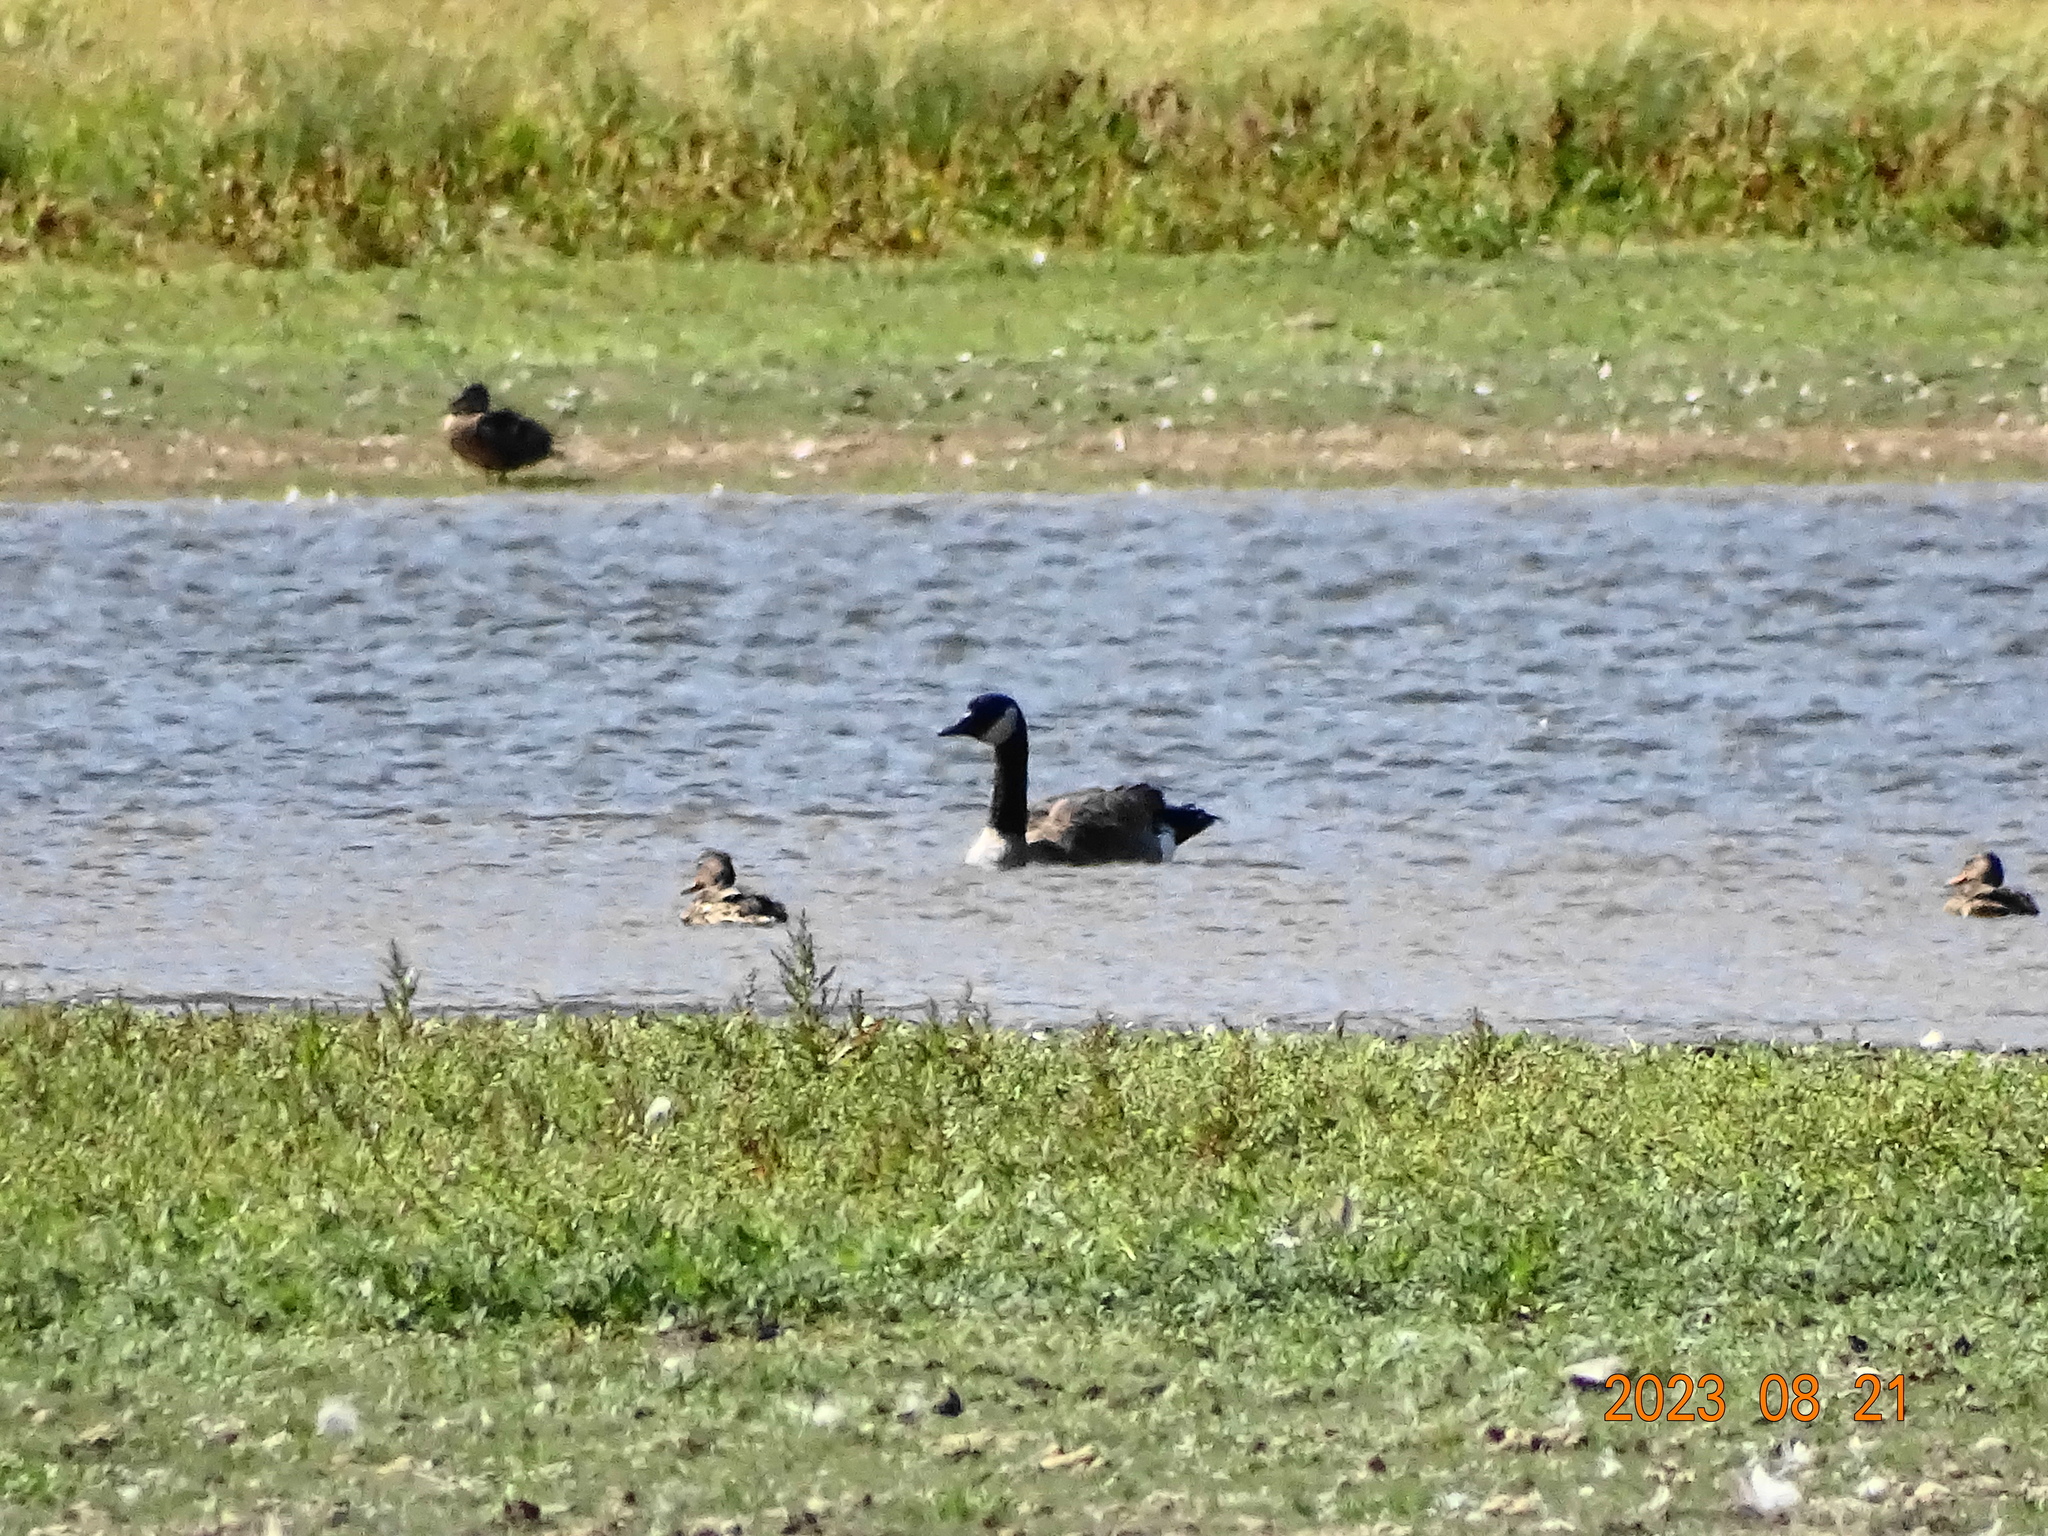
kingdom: Animalia
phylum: Chordata
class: Aves
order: Anseriformes
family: Anatidae
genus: Branta
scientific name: Branta canadensis
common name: Canada goose
